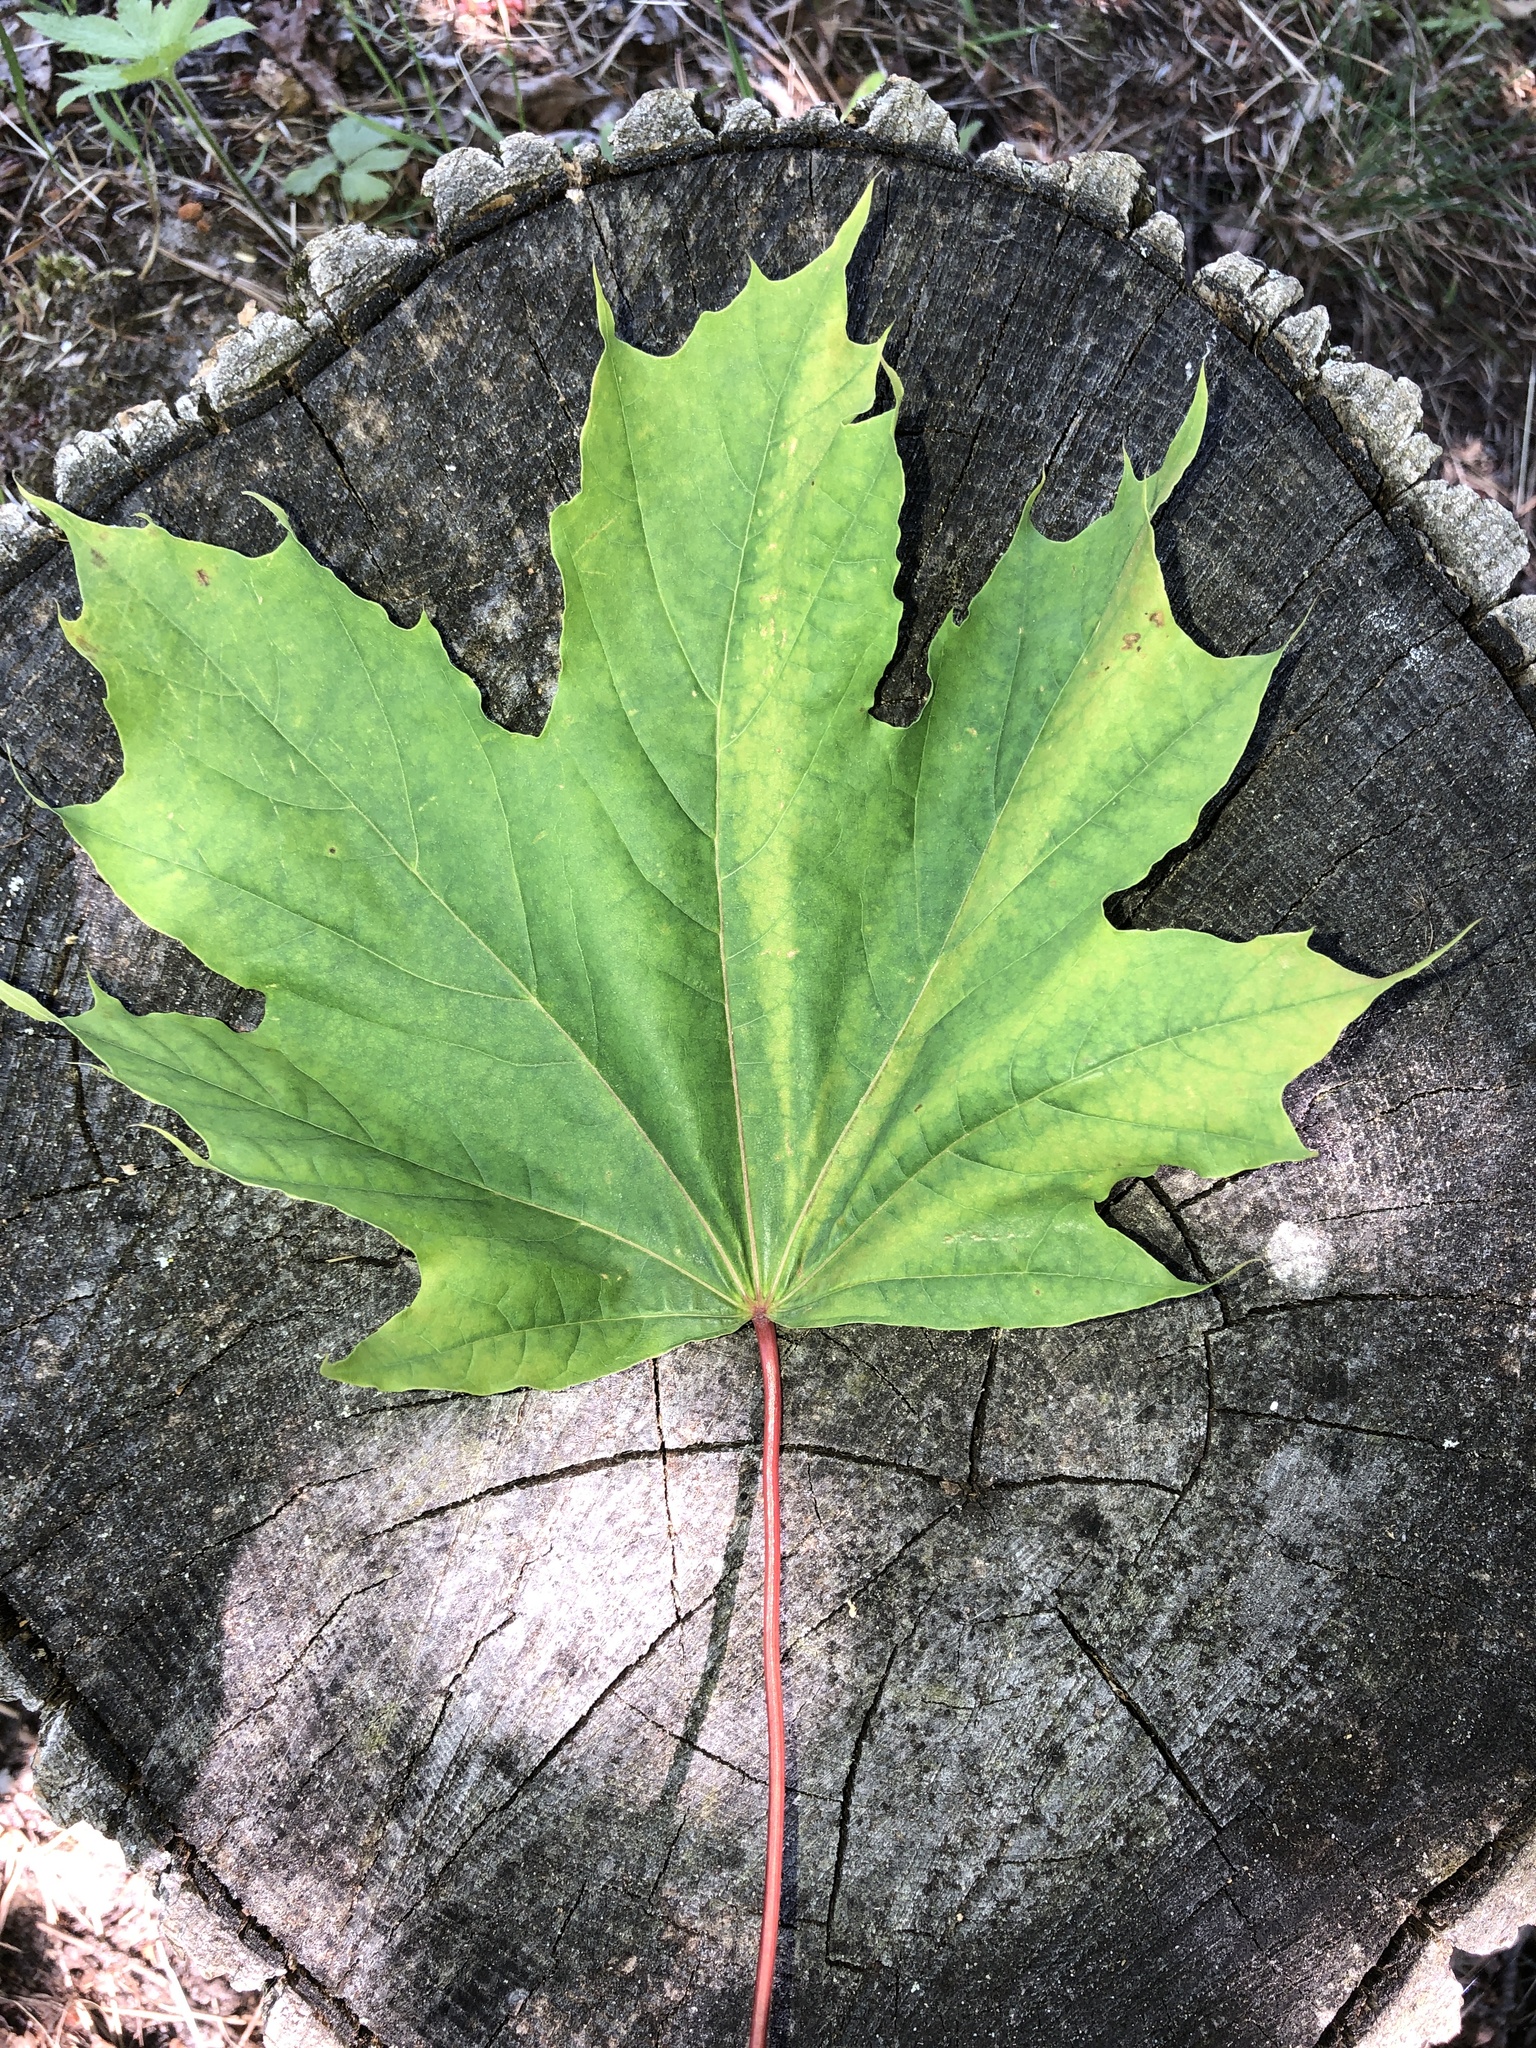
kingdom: Plantae
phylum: Tracheophyta
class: Magnoliopsida
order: Sapindales
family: Sapindaceae
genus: Acer
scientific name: Acer platanoides
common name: Norway maple
